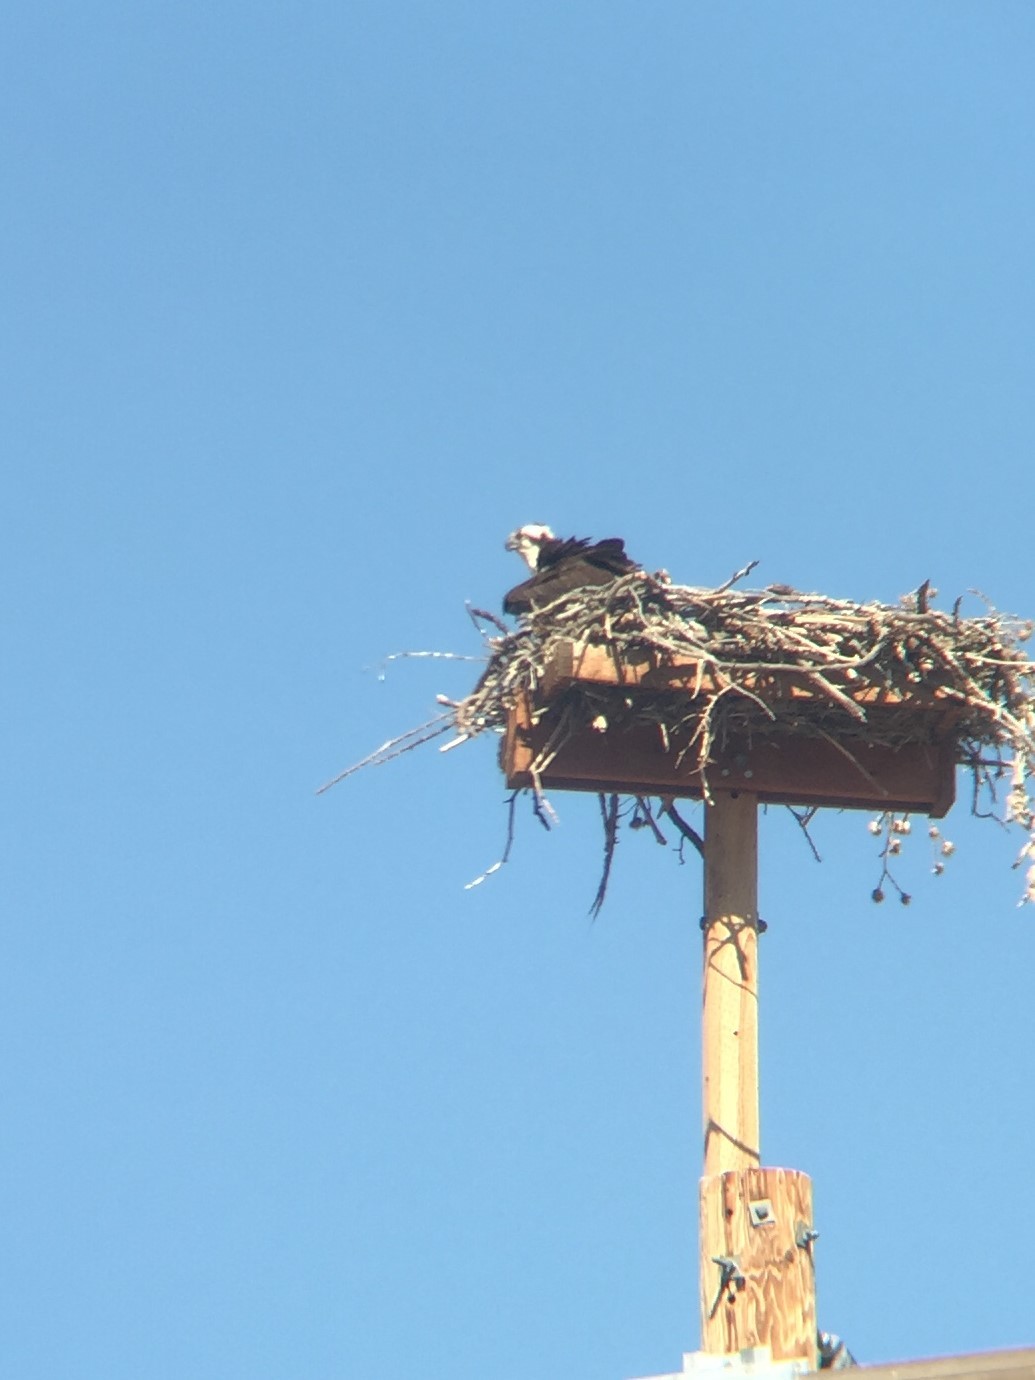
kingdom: Animalia
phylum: Chordata
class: Aves
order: Accipitriformes
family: Pandionidae
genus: Pandion
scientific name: Pandion haliaetus
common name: Osprey
